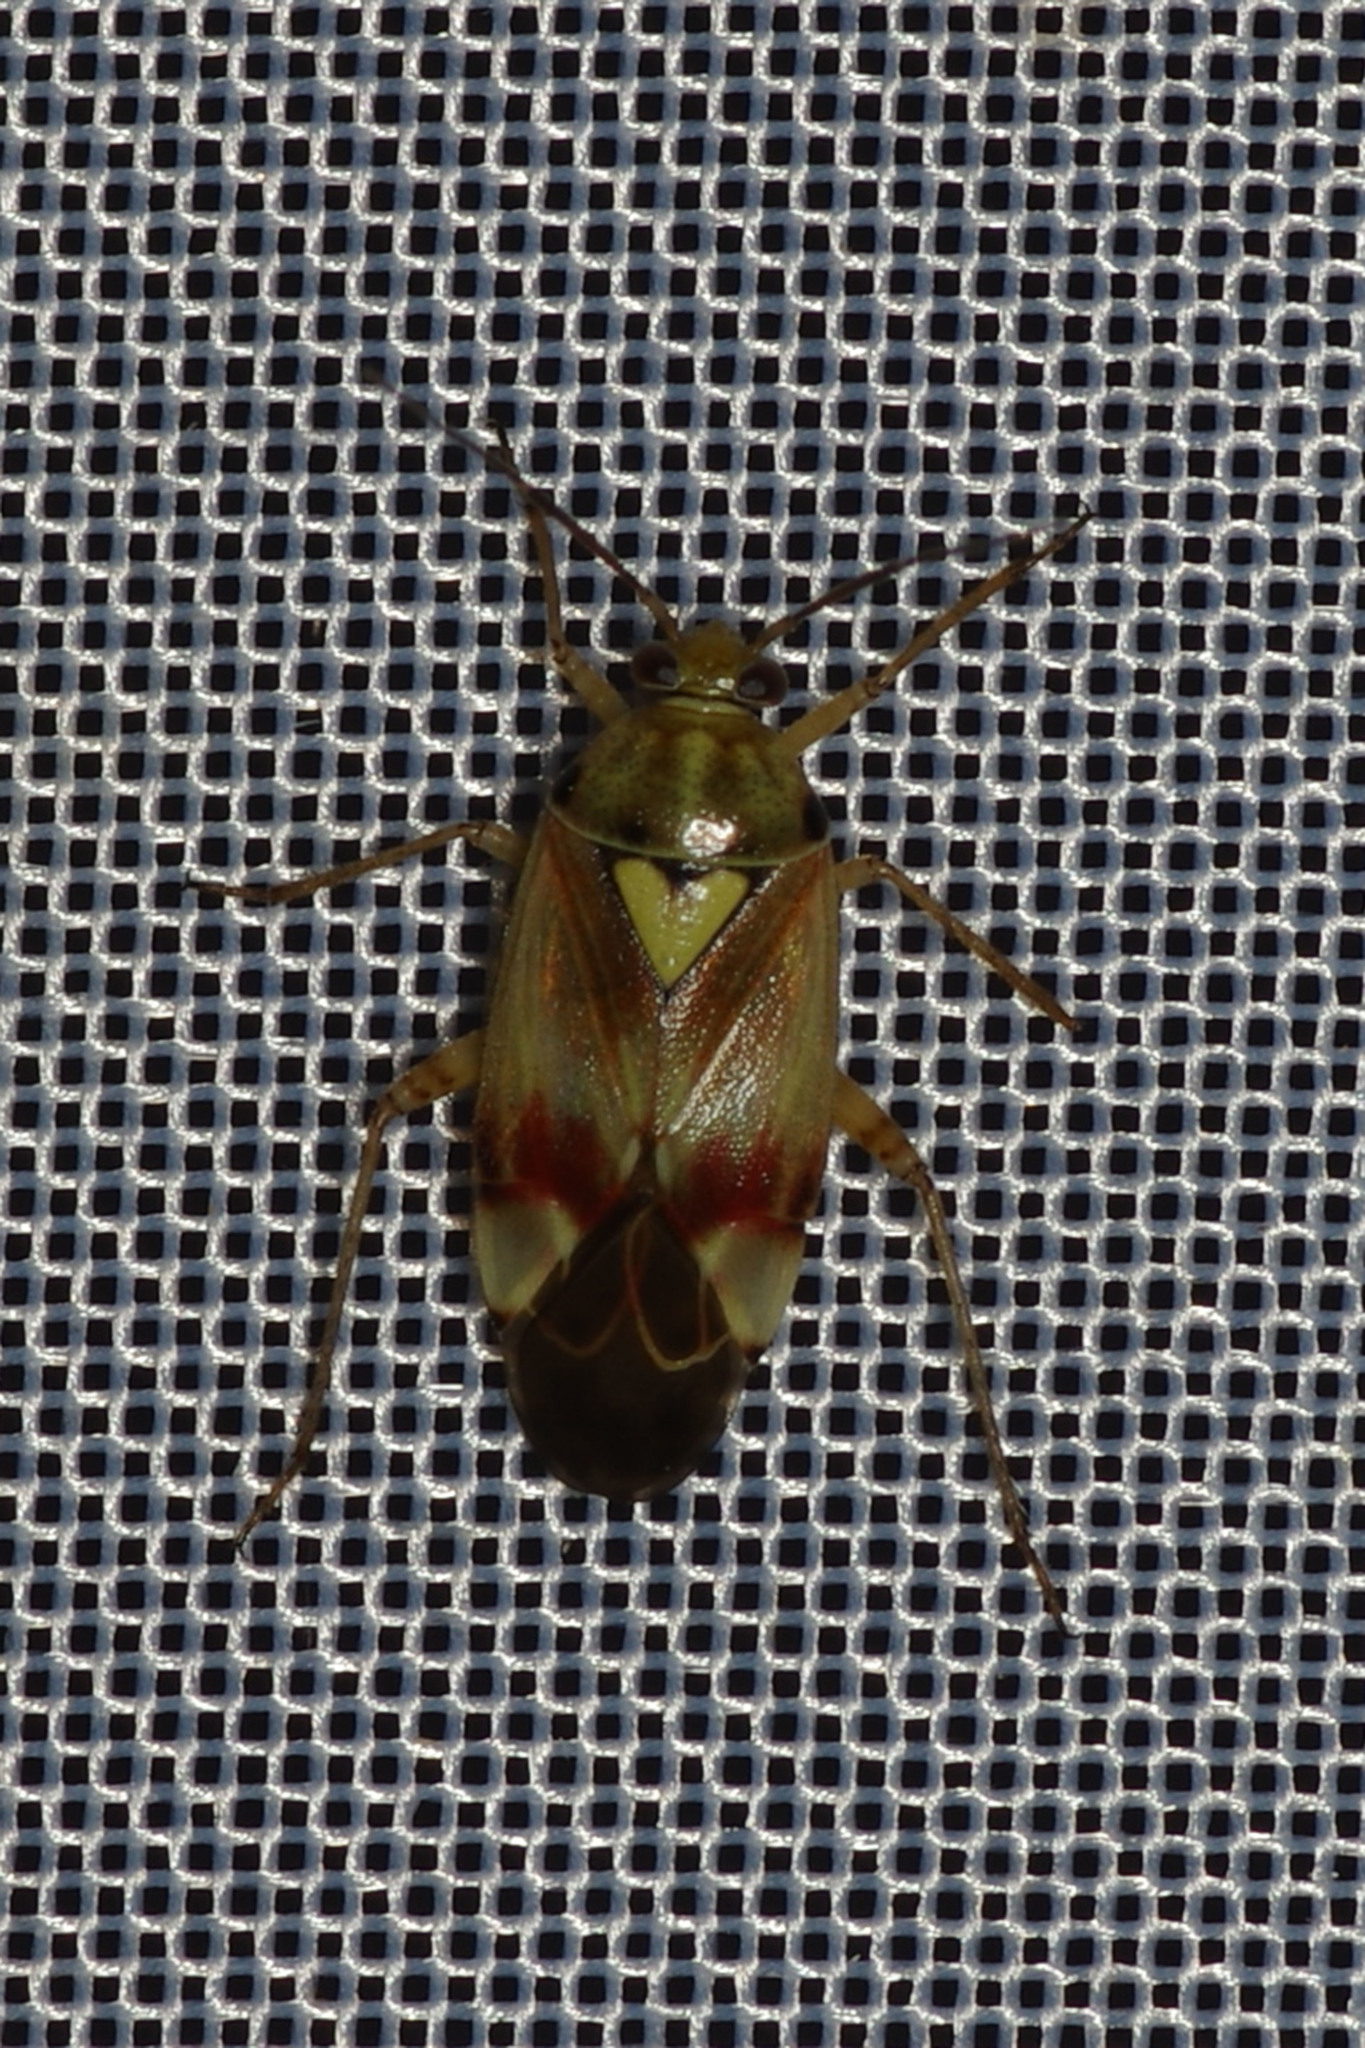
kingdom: Animalia
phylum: Arthropoda
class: Insecta
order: Hemiptera
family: Miridae
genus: Lygus
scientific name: Lygus pratensis
